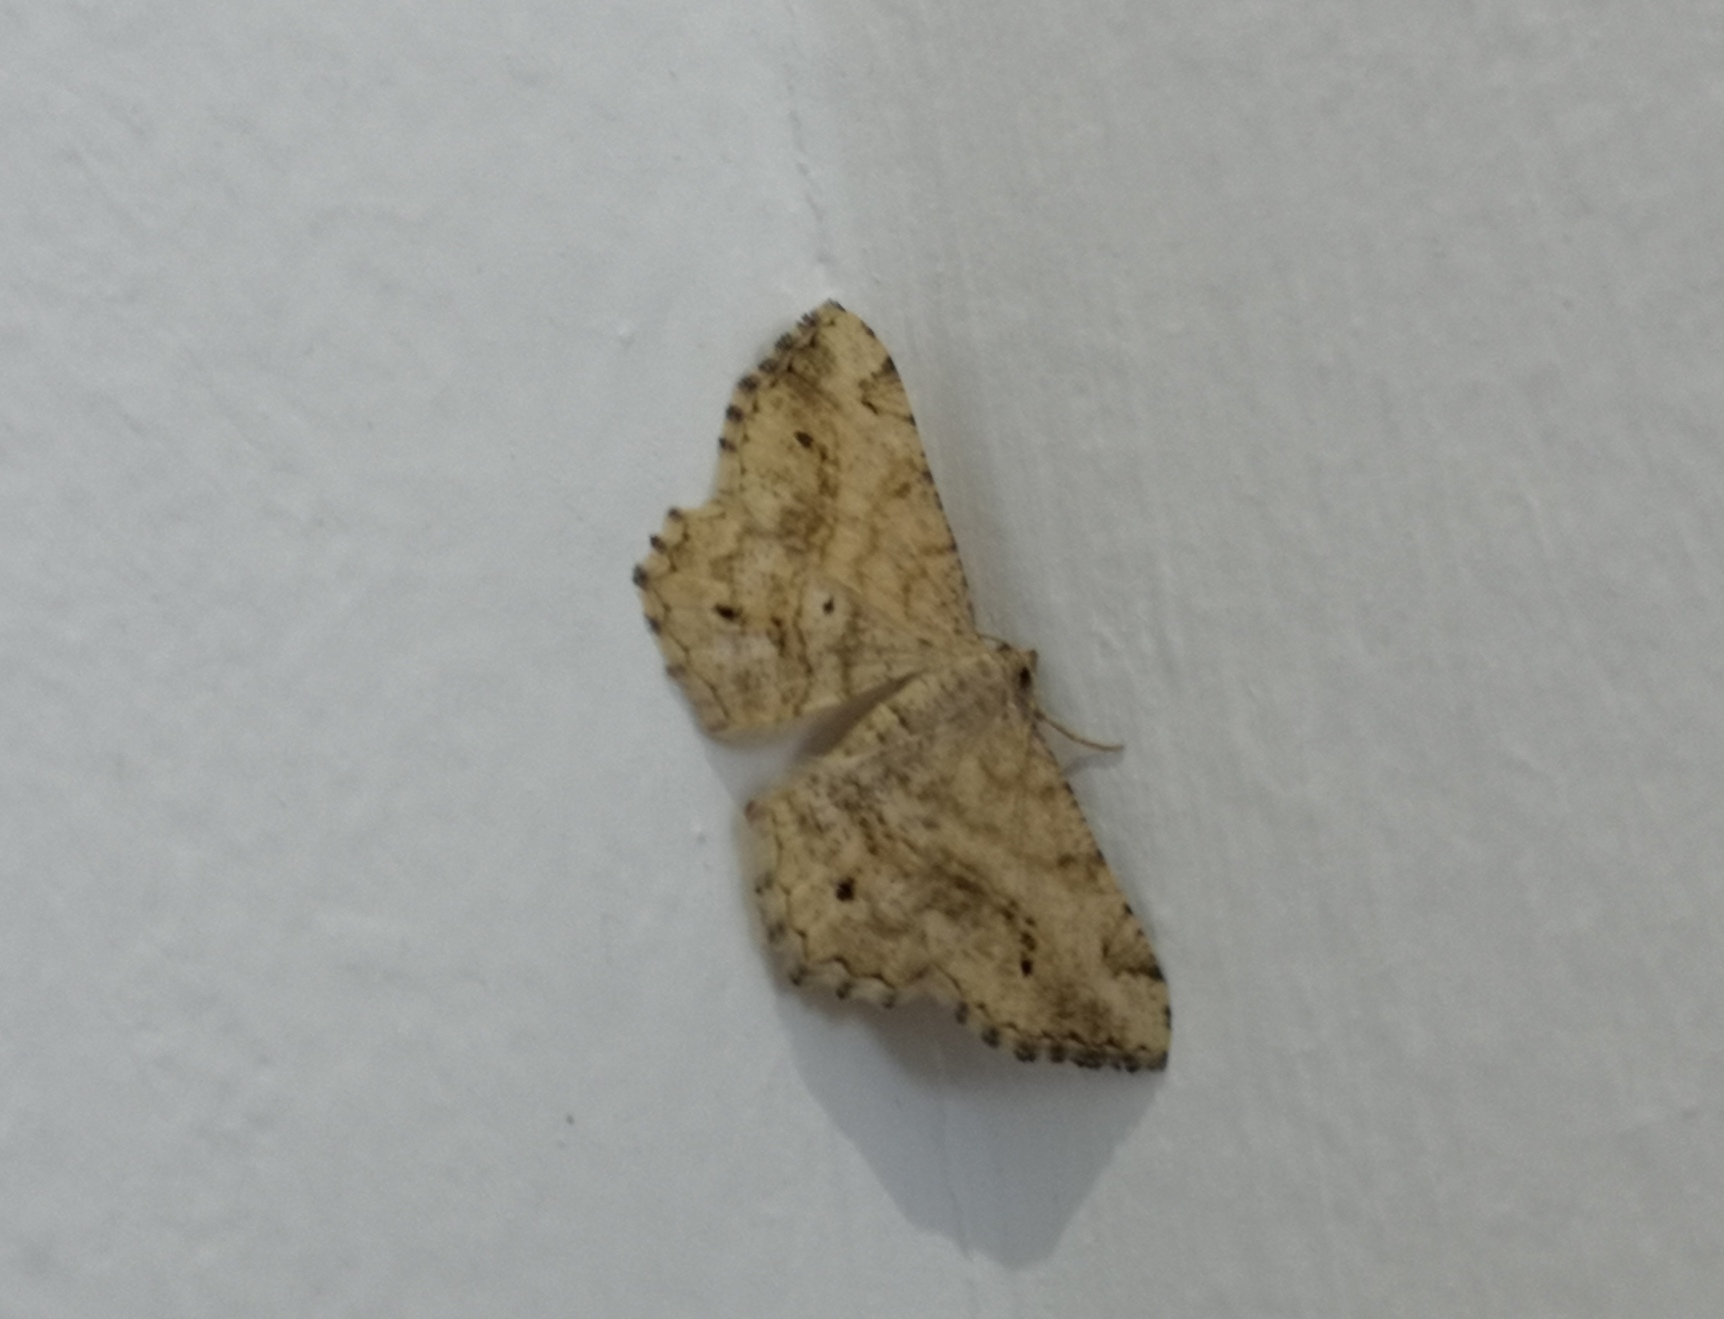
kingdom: Animalia
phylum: Arthropoda
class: Insecta
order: Lepidoptera
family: Geometridae
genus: Chiasmia
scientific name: Chiasmia aestimaria
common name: Tamarisk peacock
